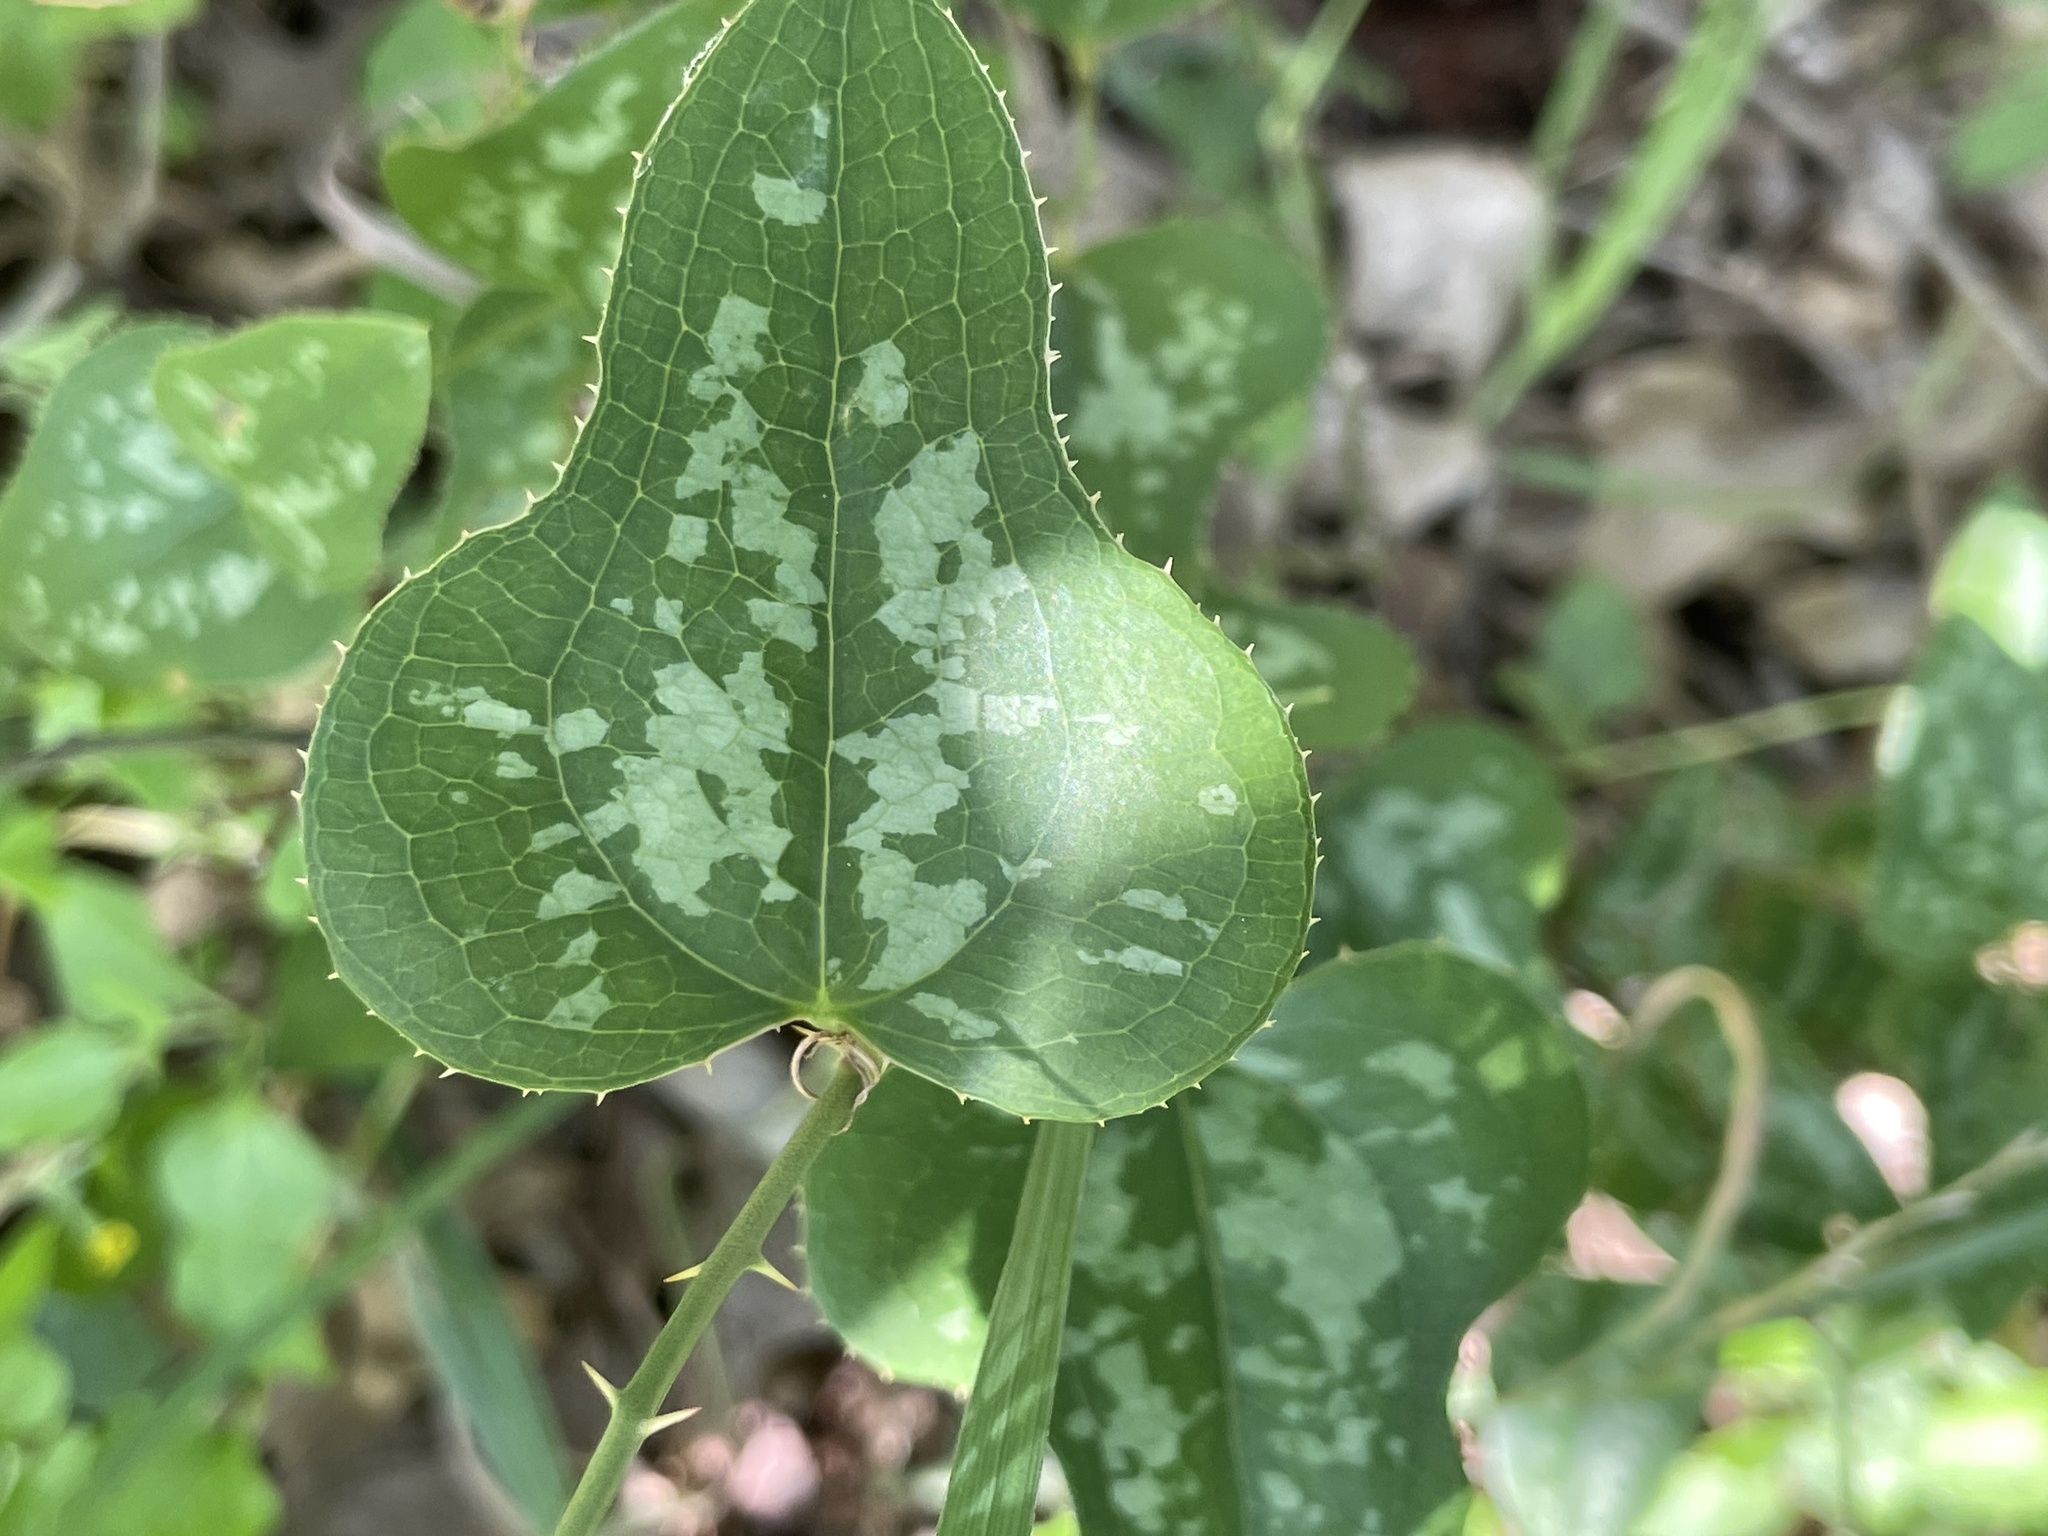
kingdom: Plantae
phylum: Tracheophyta
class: Liliopsida
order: Liliales
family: Smilacaceae
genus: Smilax
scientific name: Smilax bona-nox
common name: Catbrier
